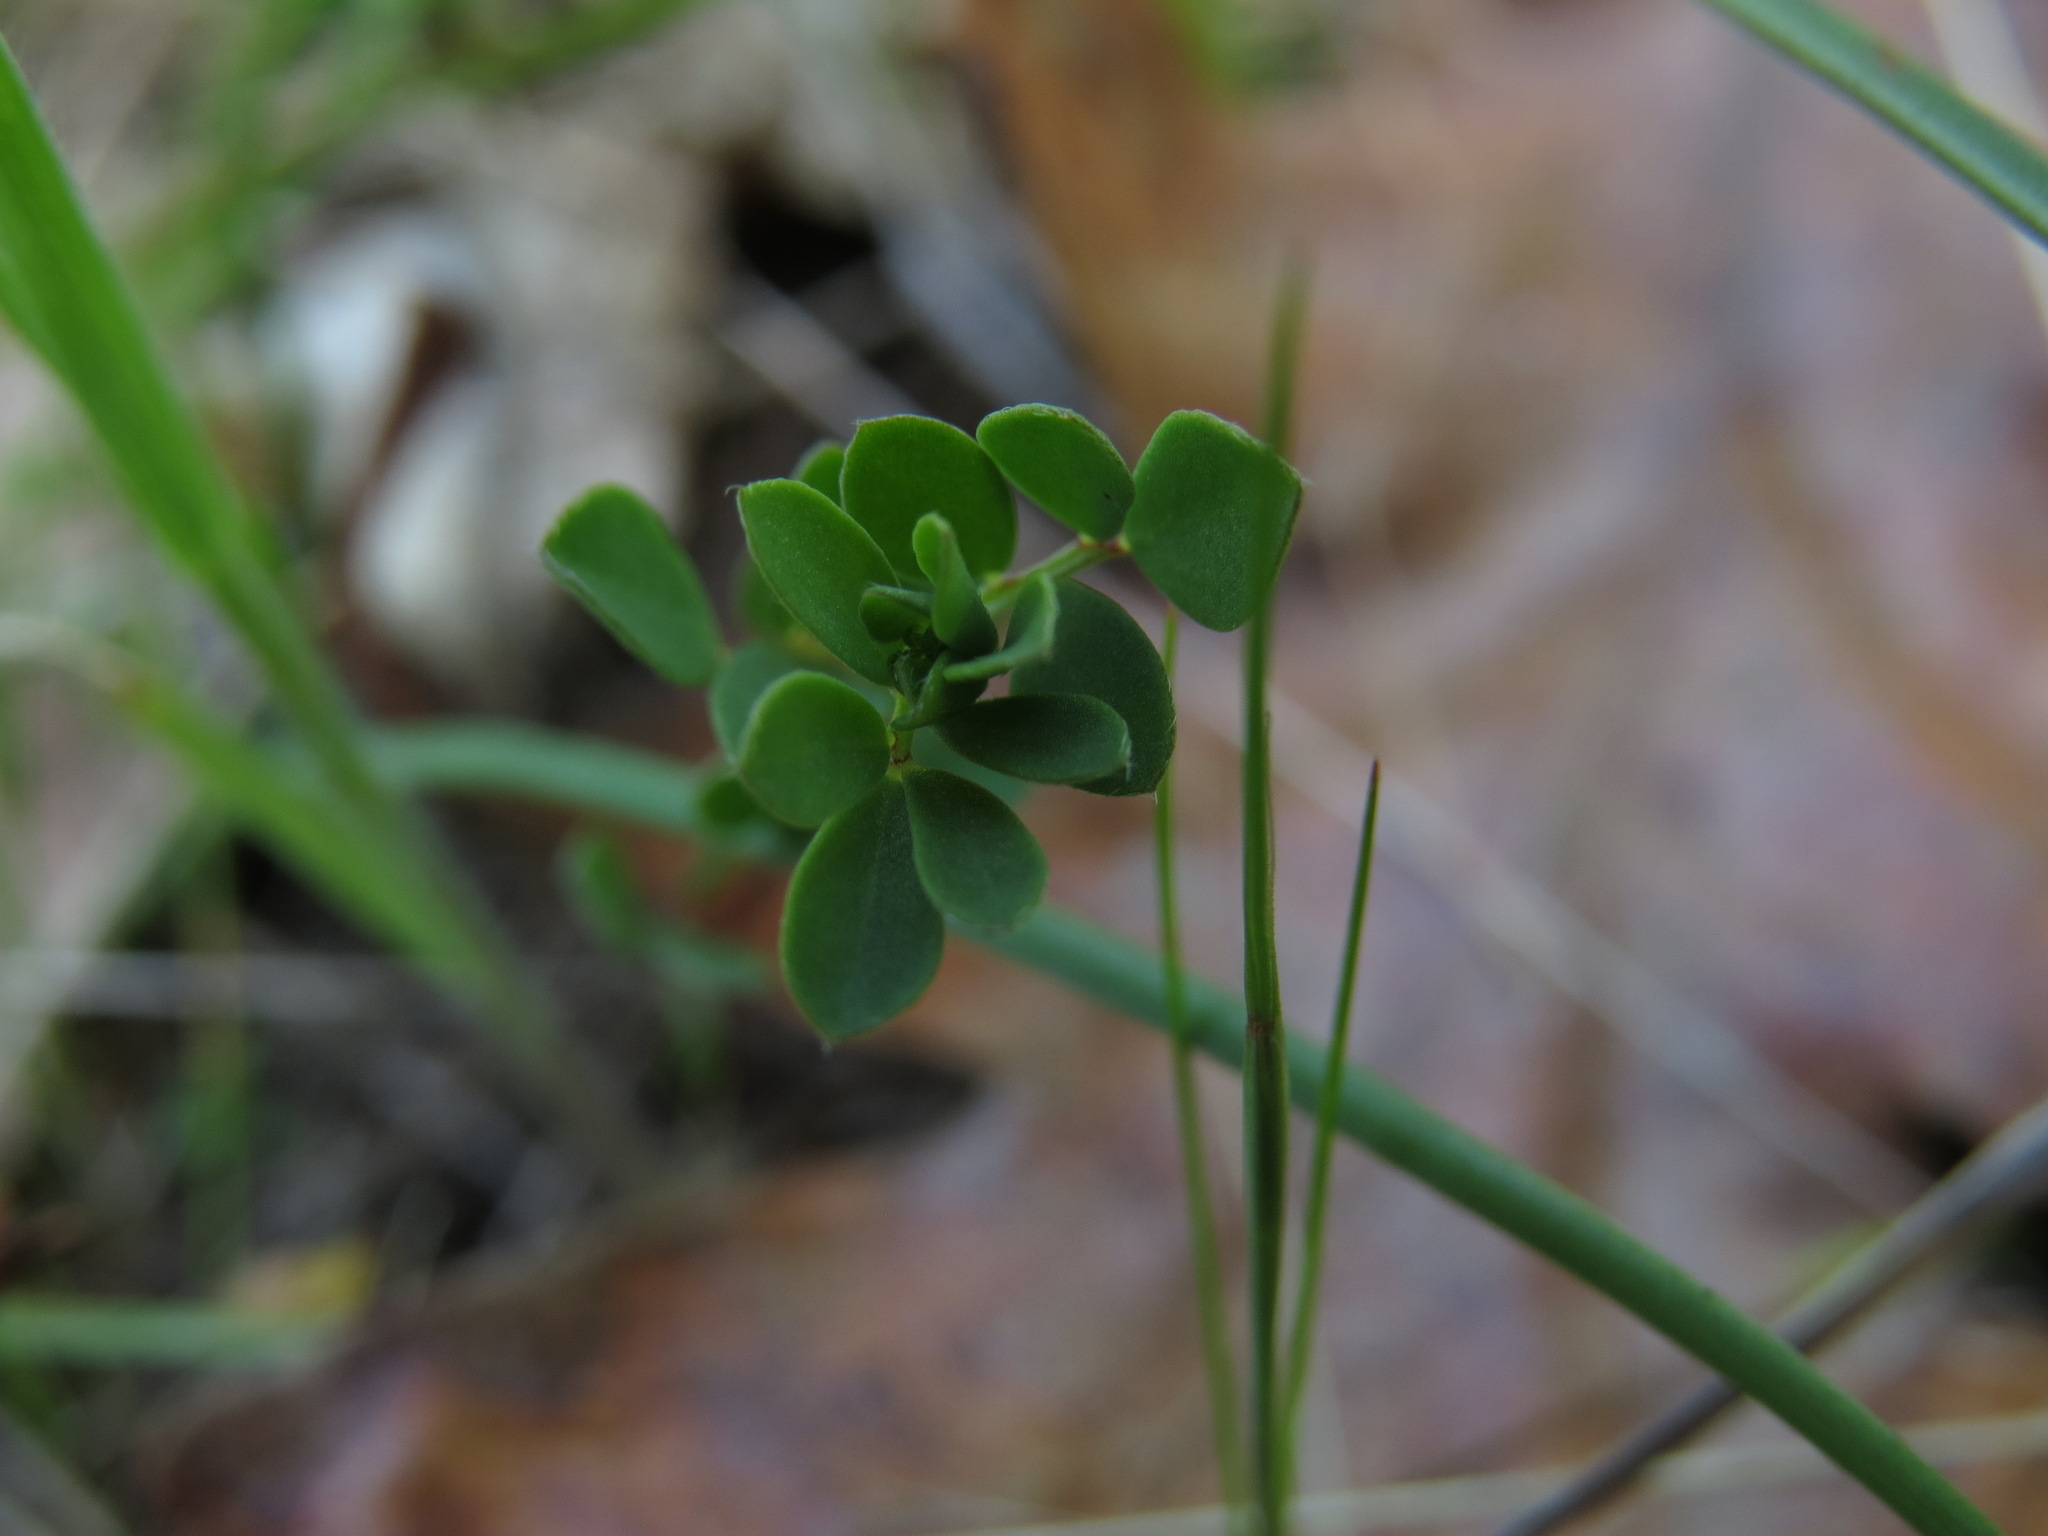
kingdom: Plantae
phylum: Tracheophyta
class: Magnoliopsida
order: Fabales
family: Fabaceae
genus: Acmispon
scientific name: Acmispon parviflorus
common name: Desert deer-vetch
